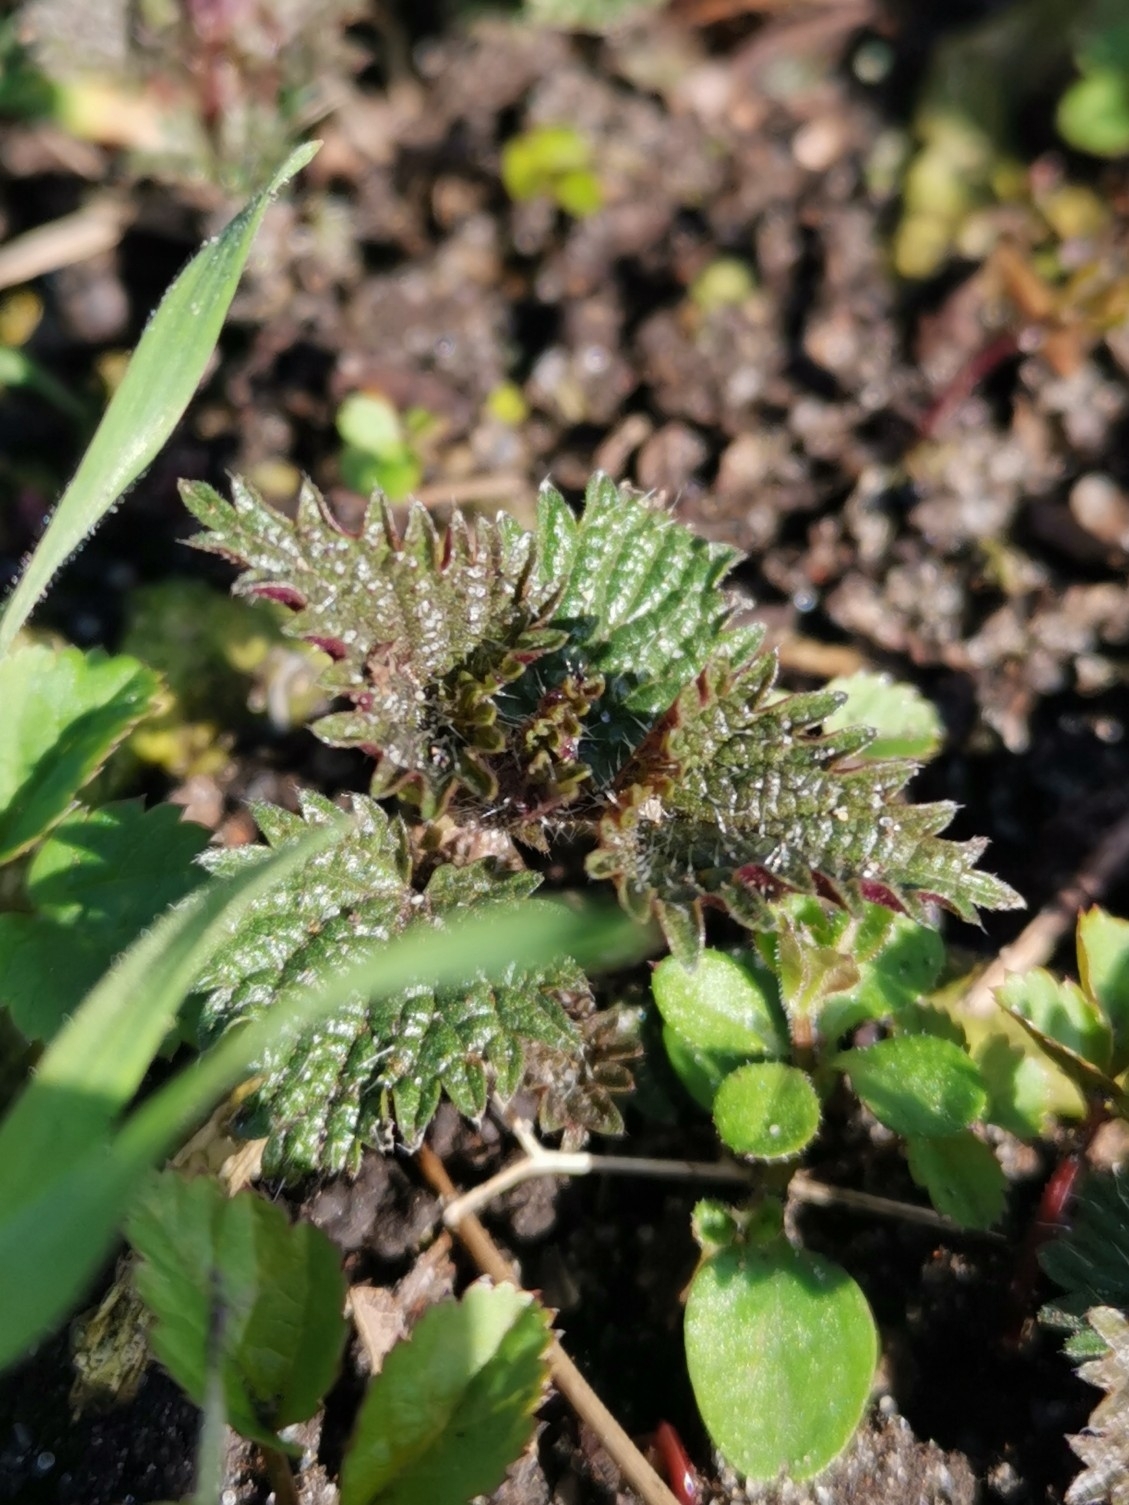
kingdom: Plantae
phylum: Tracheophyta
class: Magnoliopsida
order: Rosales
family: Urticaceae
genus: Urtica
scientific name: Urtica dioica
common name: Common nettle
